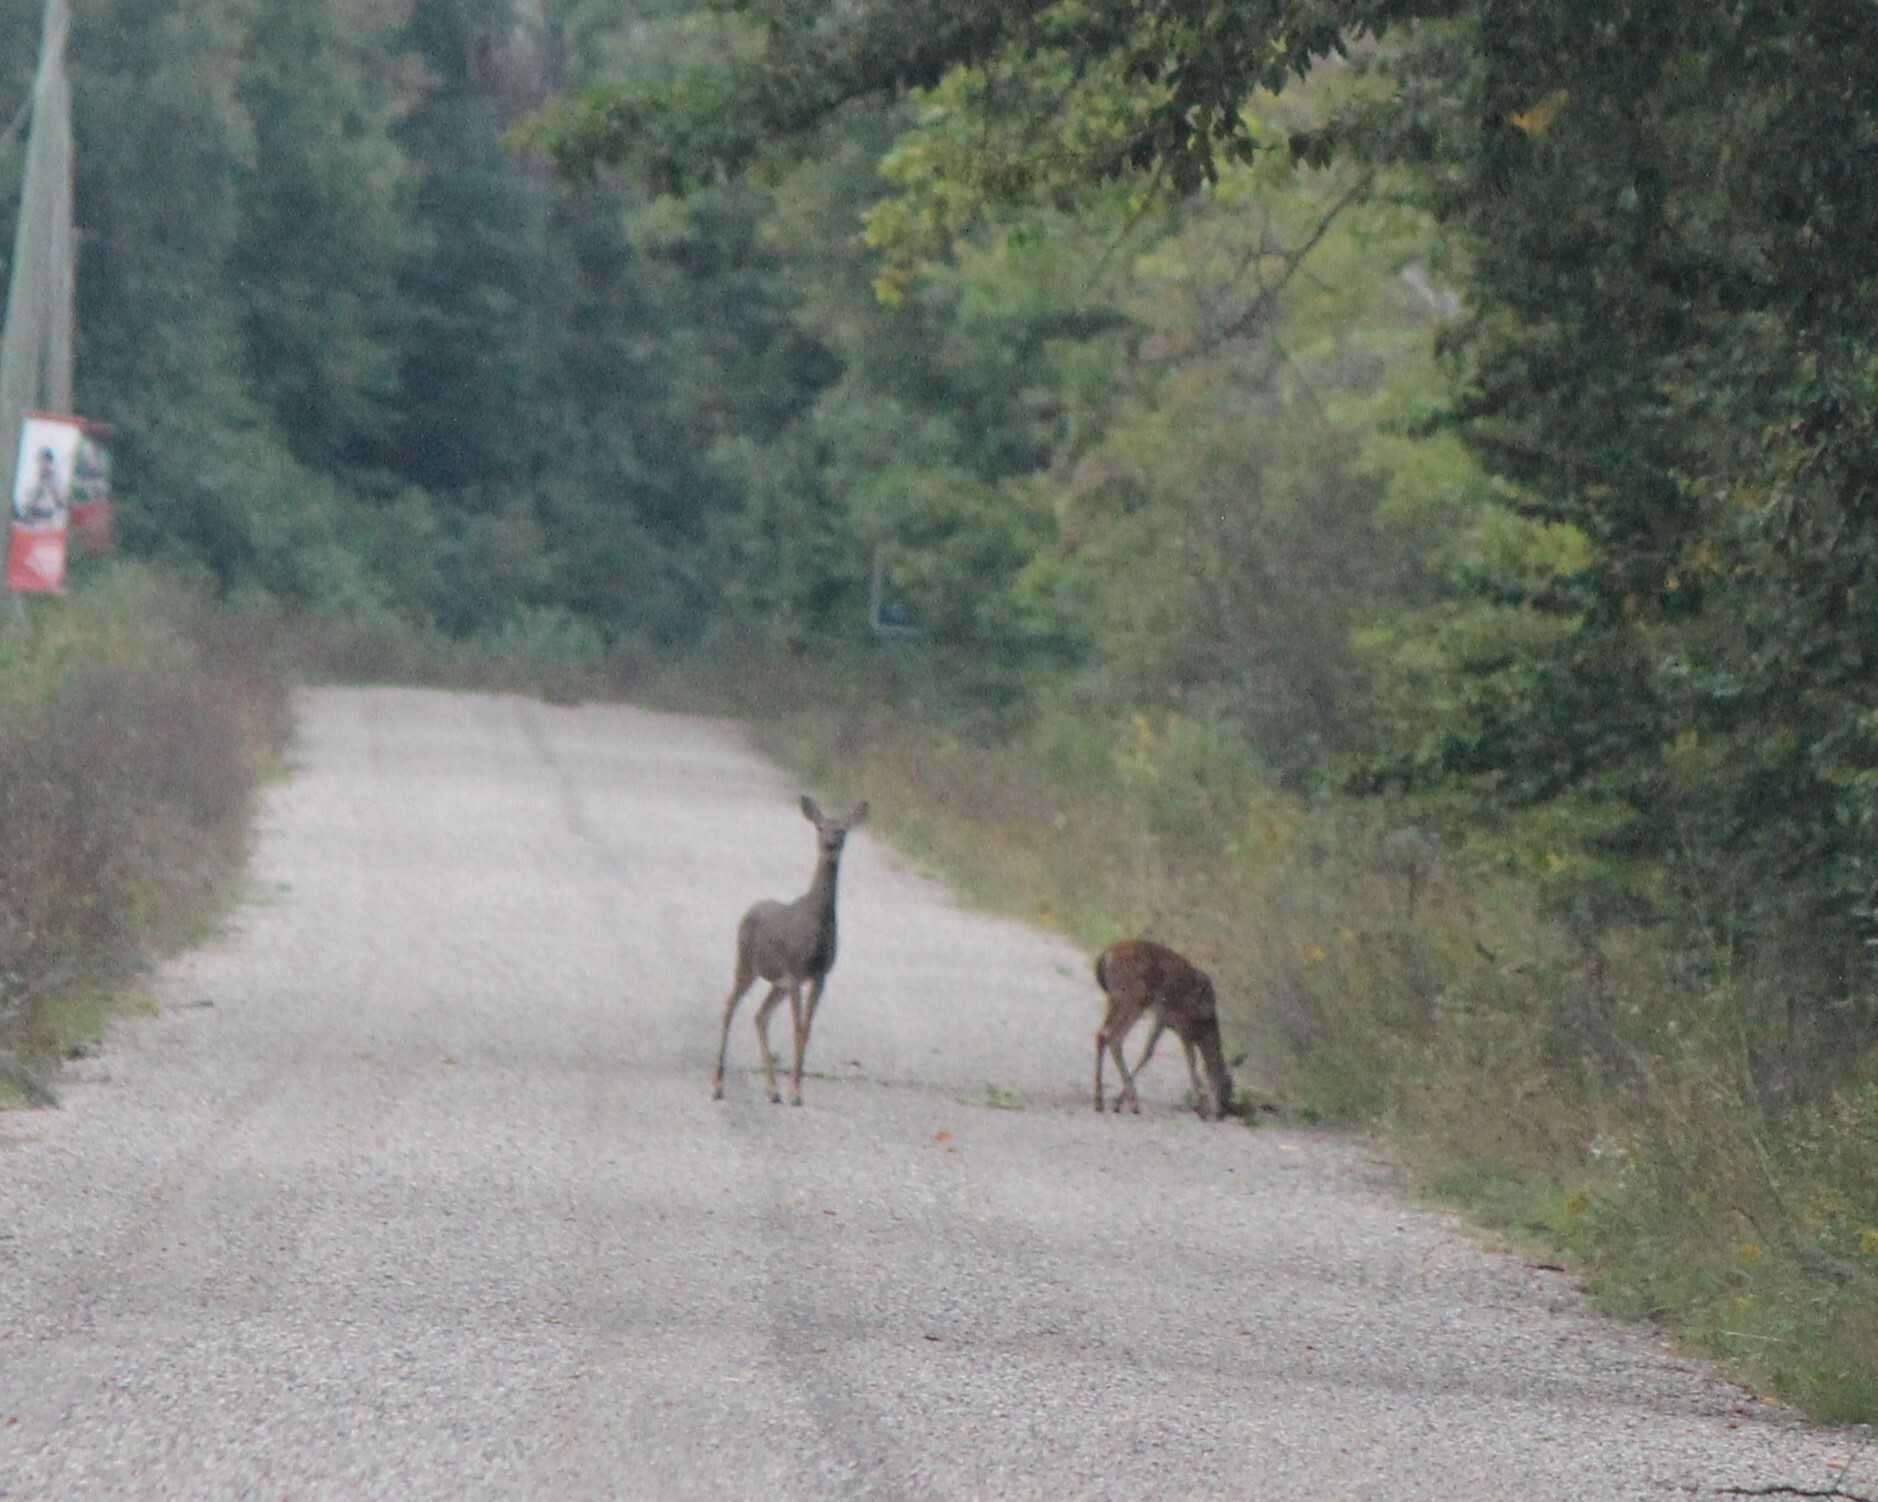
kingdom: Animalia
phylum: Chordata
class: Mammalia
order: Artiodactyla
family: Cervidae
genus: Odocoileus
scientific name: Odocoileus virginianus
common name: White-tailed deer
